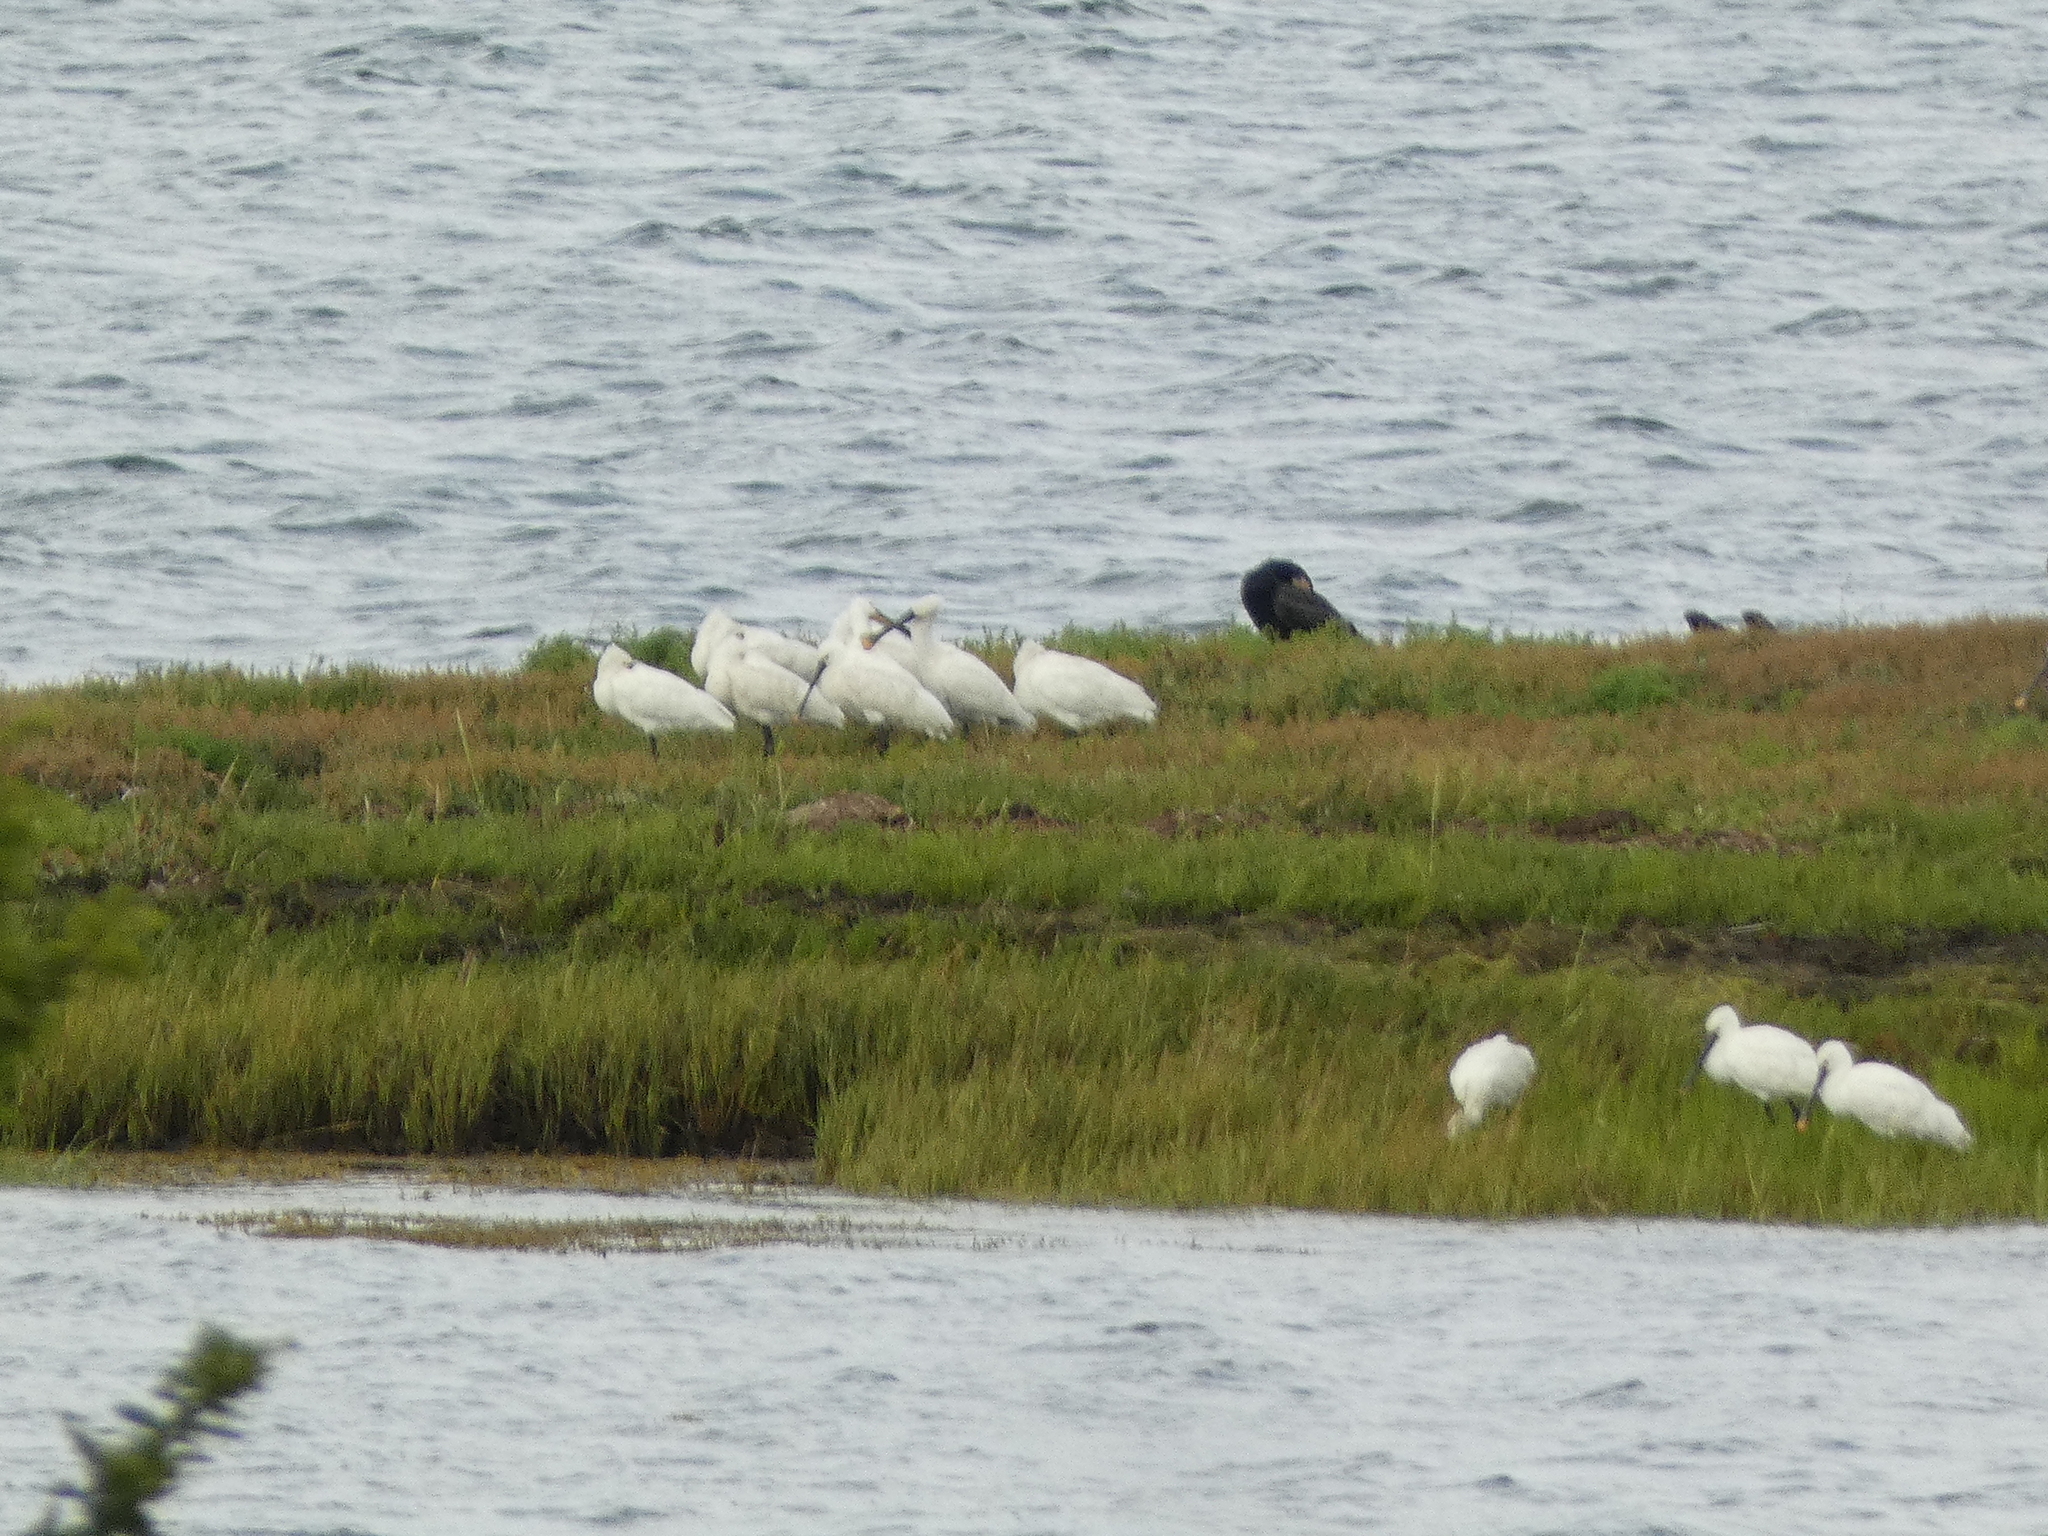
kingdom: Animalia
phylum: Chordata
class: Aves
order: Pelecaniformes
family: Threskiornithidae
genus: Platalea
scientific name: Platalea leucorodia
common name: Eurasian spoonbill
